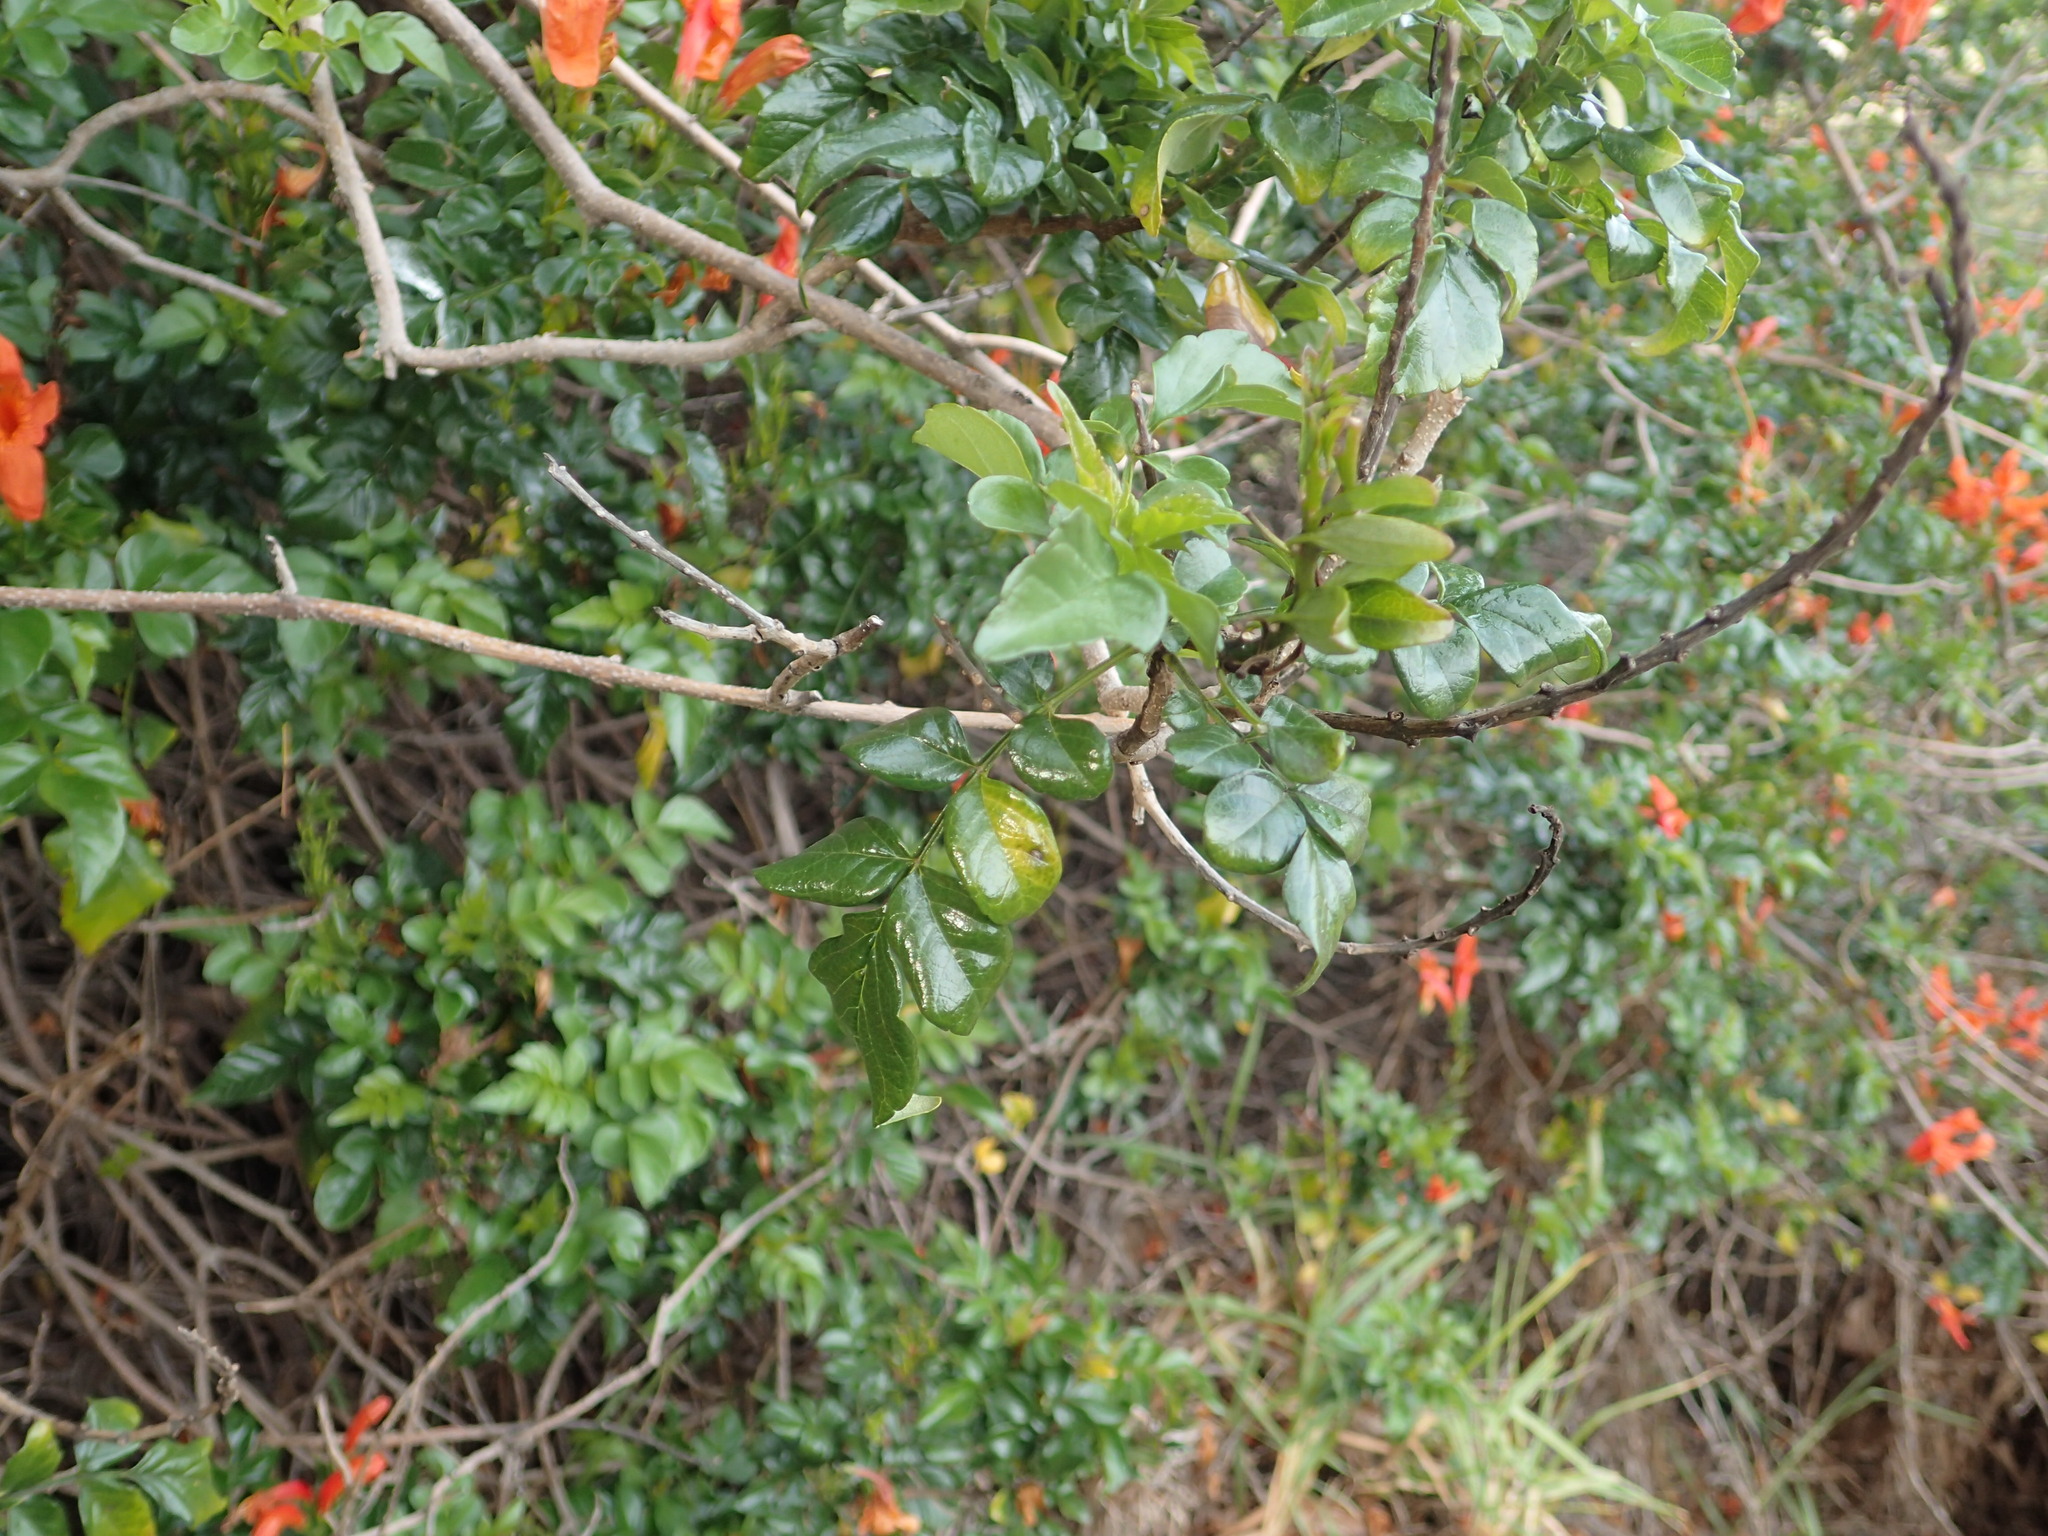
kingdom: Plantae
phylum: Tracheophyta
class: Magnoliopsida
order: Lamiales
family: Bignoniaceae
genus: Tecomaria
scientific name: Tecomaria capensis
